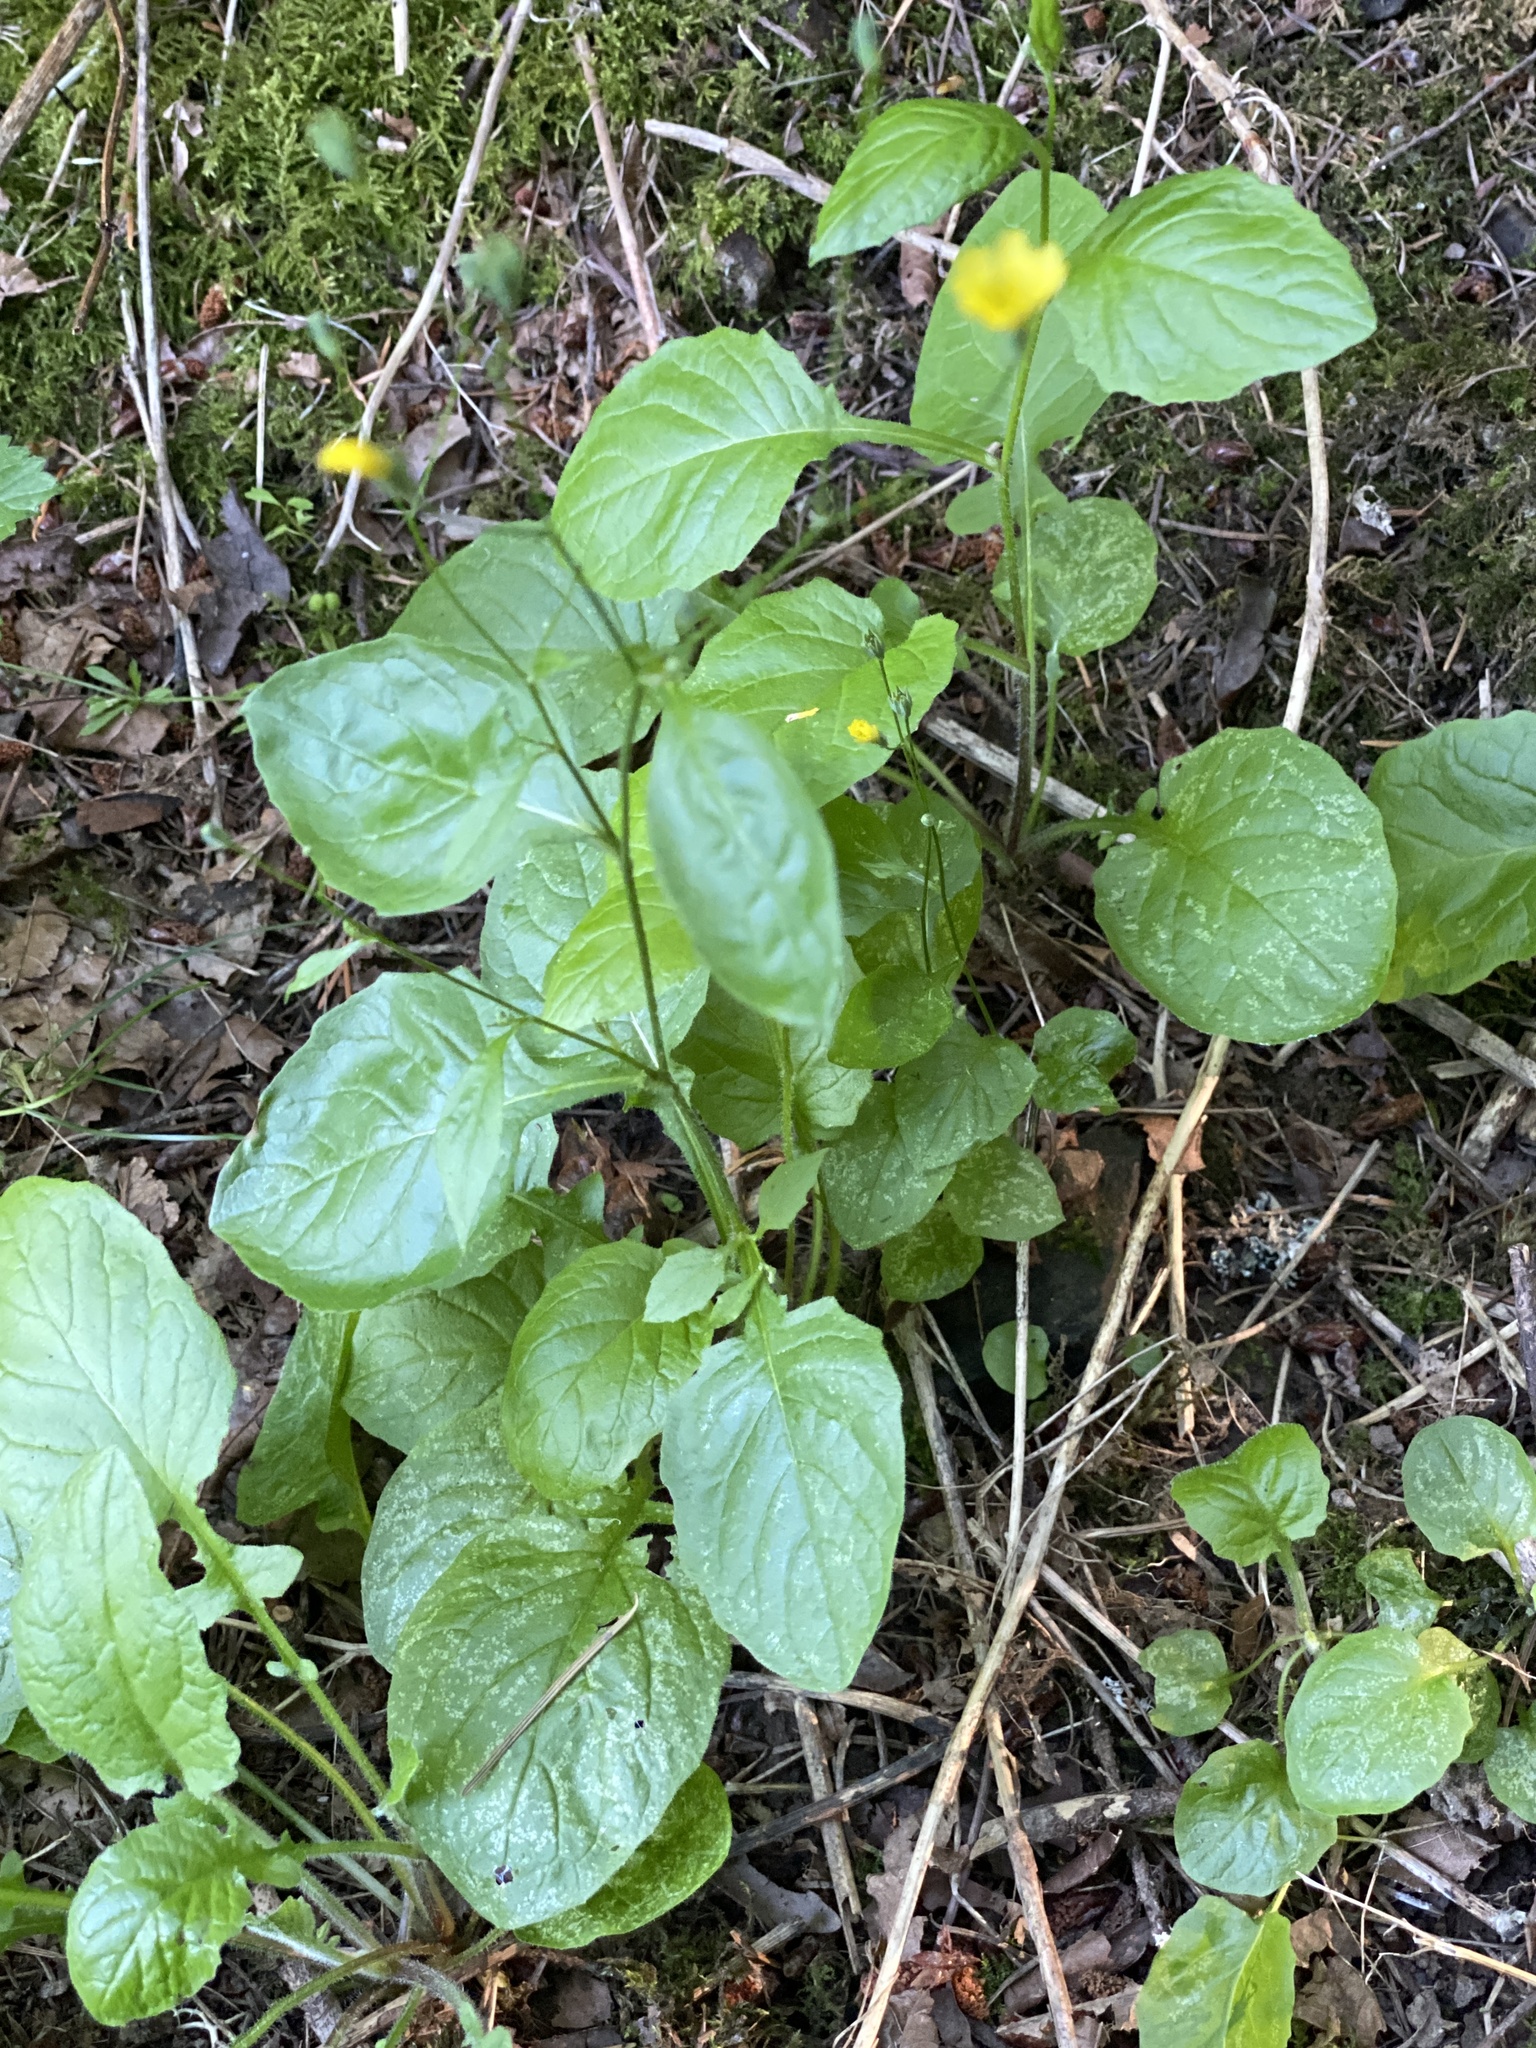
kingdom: Plantae
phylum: Tracheophyta
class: Magnoliopsida
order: Asterales
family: Asteraceae
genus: Lapsana
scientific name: Lapsana communis
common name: Nipplewort
